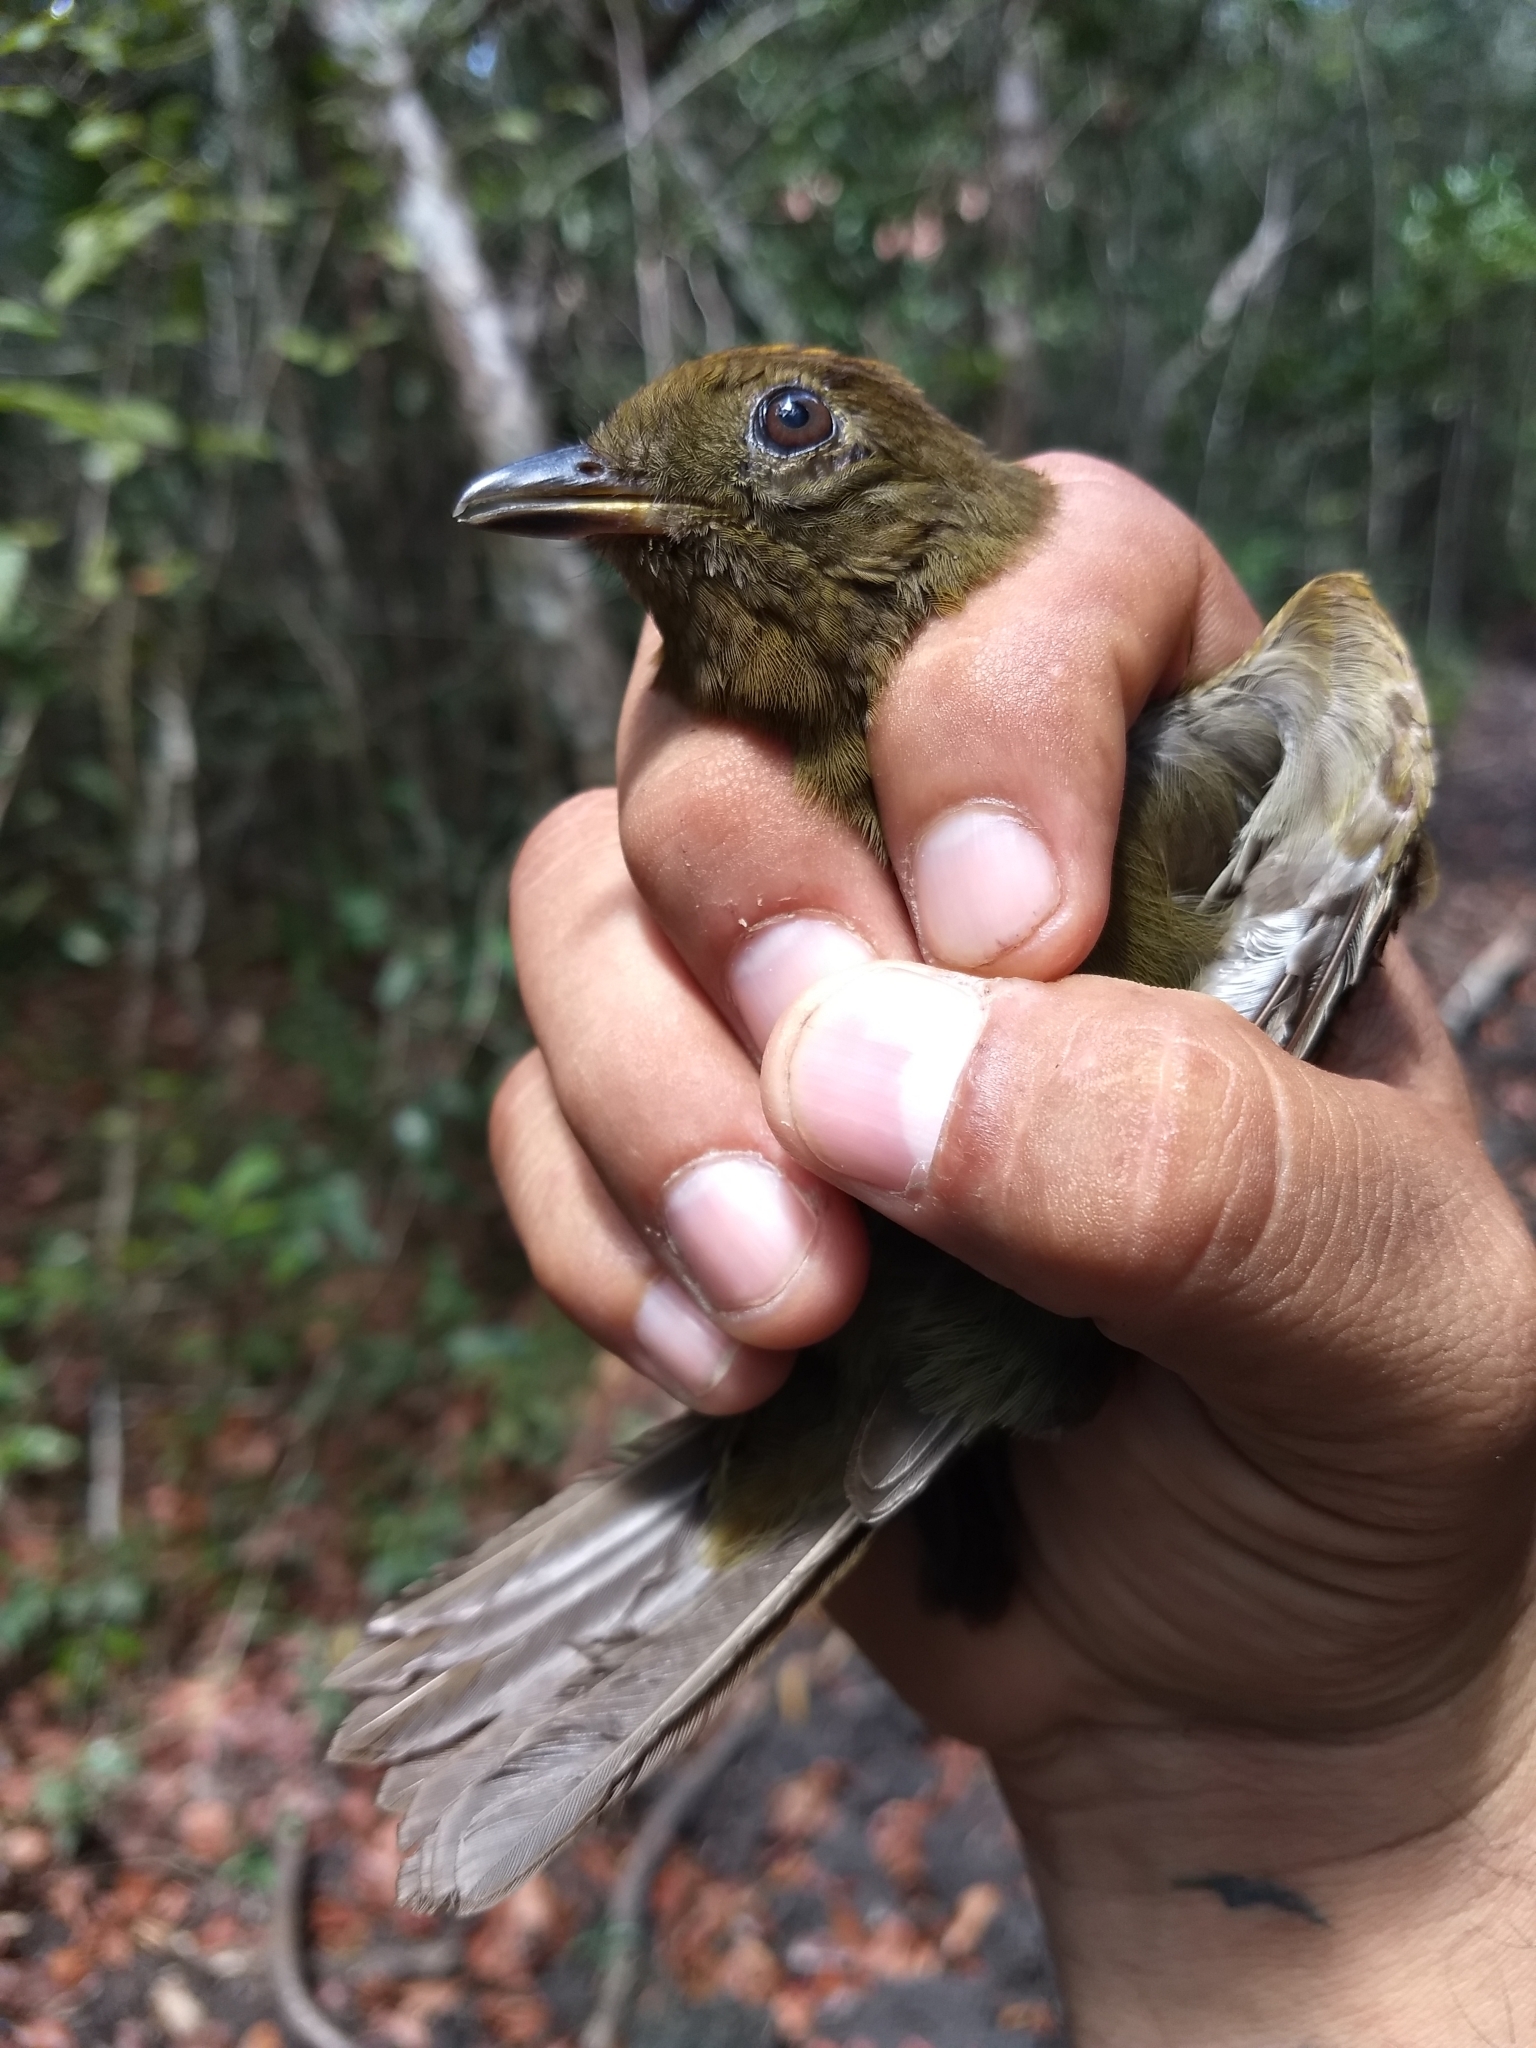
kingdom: Animalia
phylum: Chordata
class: Aves
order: Passeriformes
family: Cotingidae
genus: Schiffornis
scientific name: Schiffornis turdina
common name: Brown-winged schiffornis
